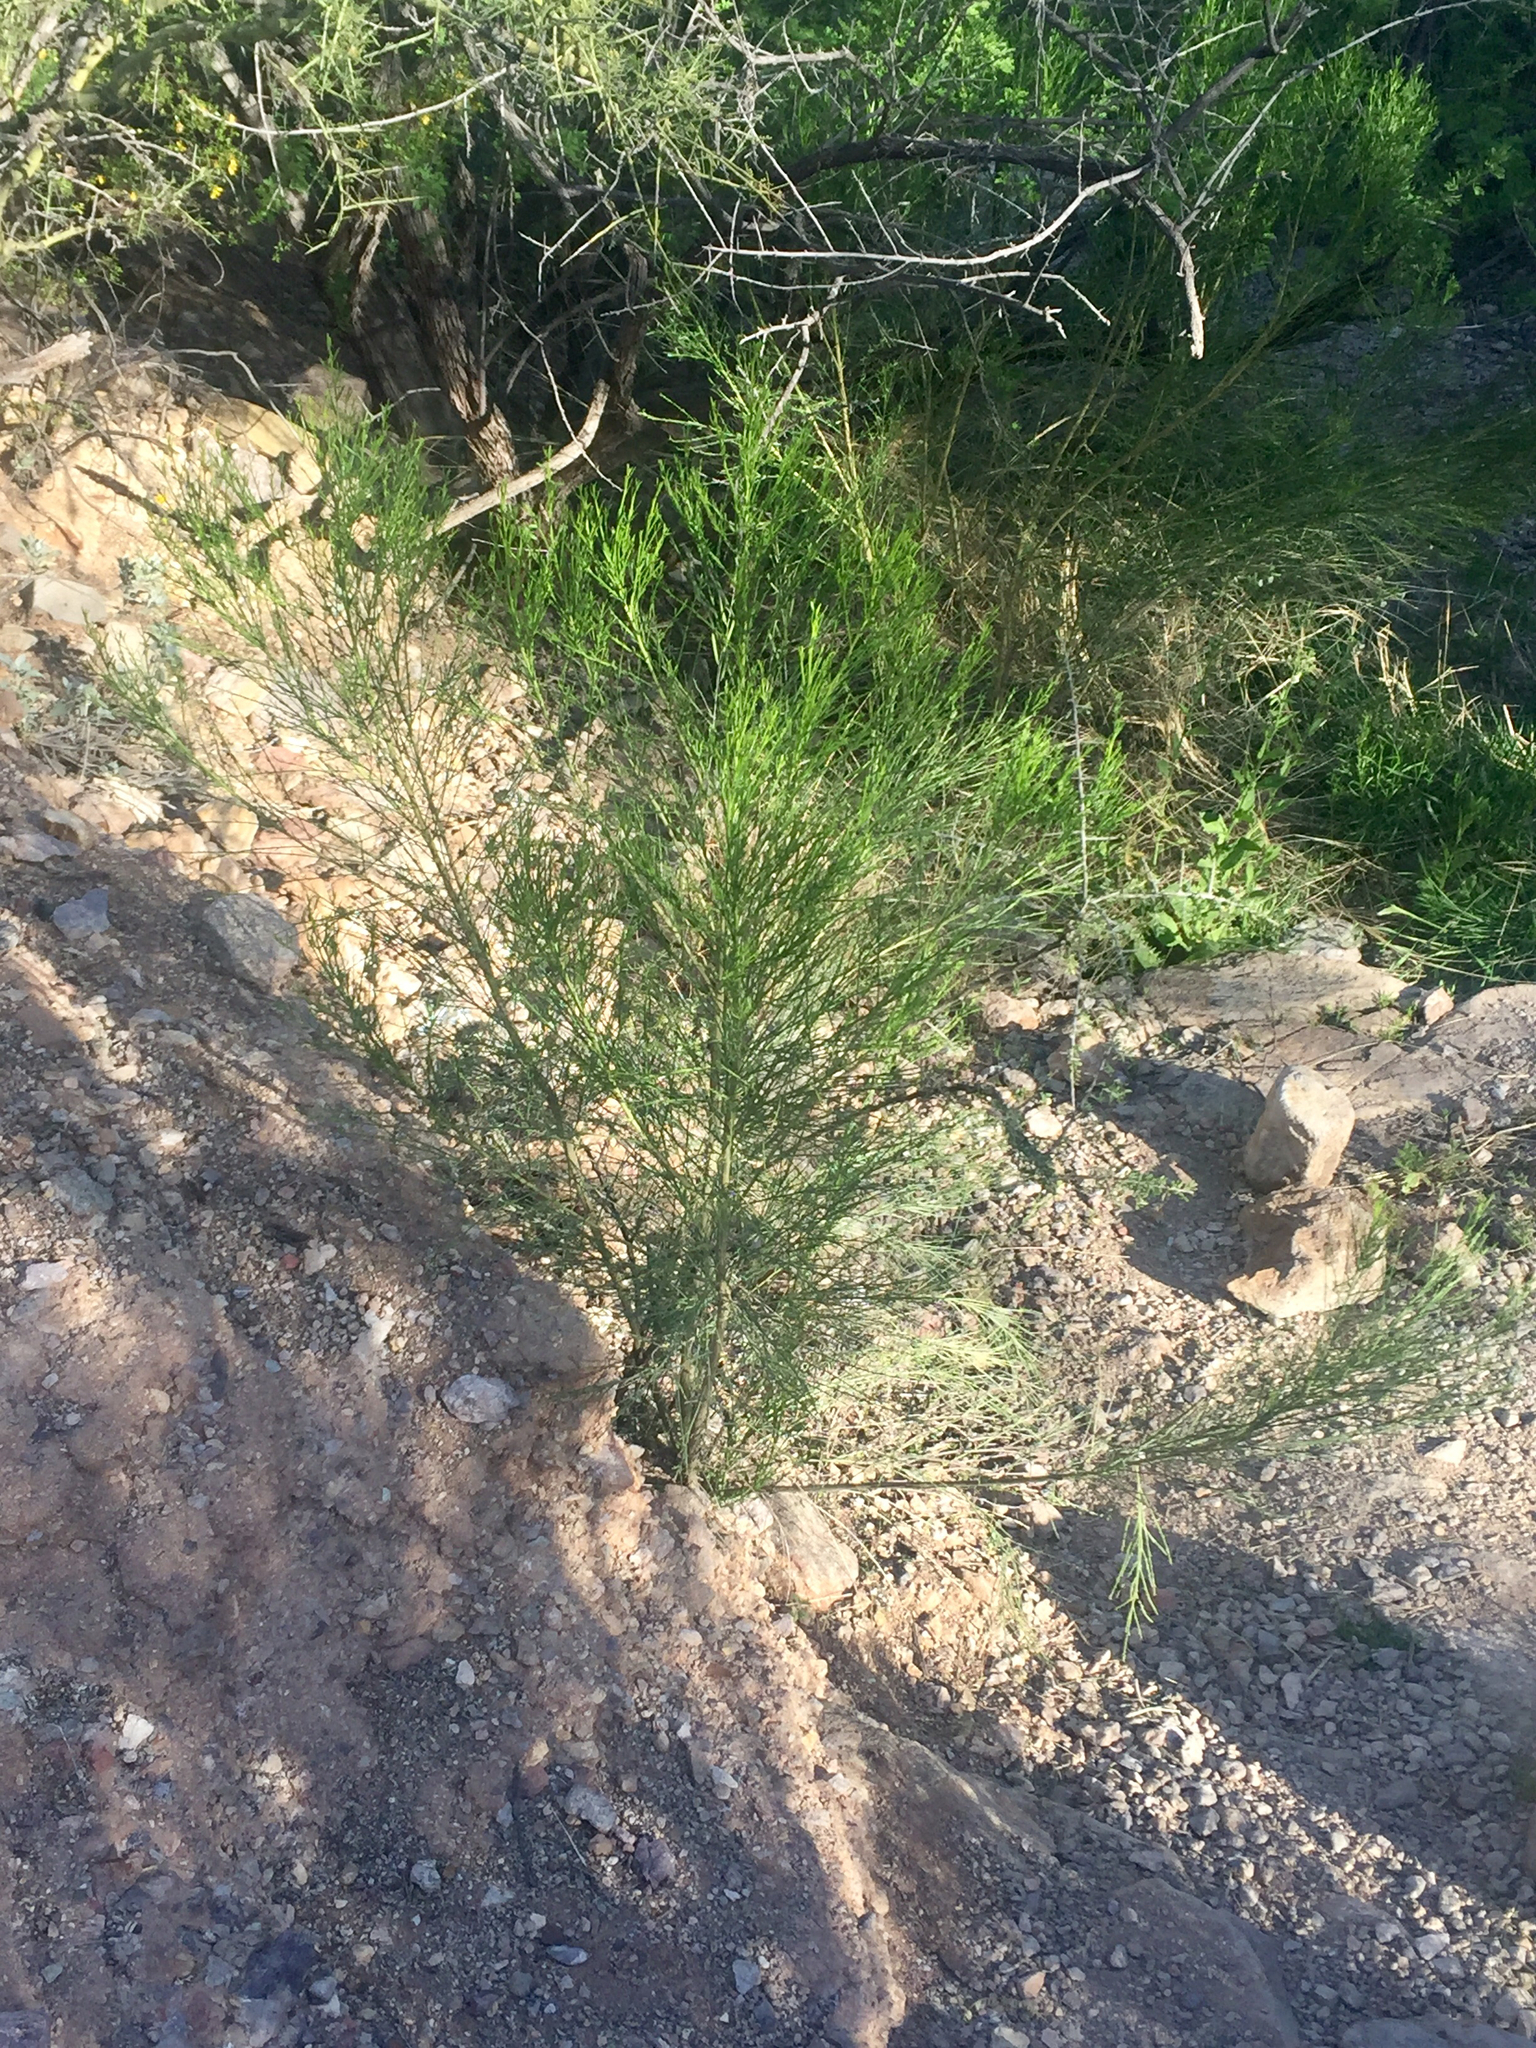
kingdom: Plantae
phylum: Tracheophyta
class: Magnoliopsida
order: Asterales
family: Asteraceae
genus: Baccharis
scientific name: Baccharis sarothroides
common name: Desert-broom
